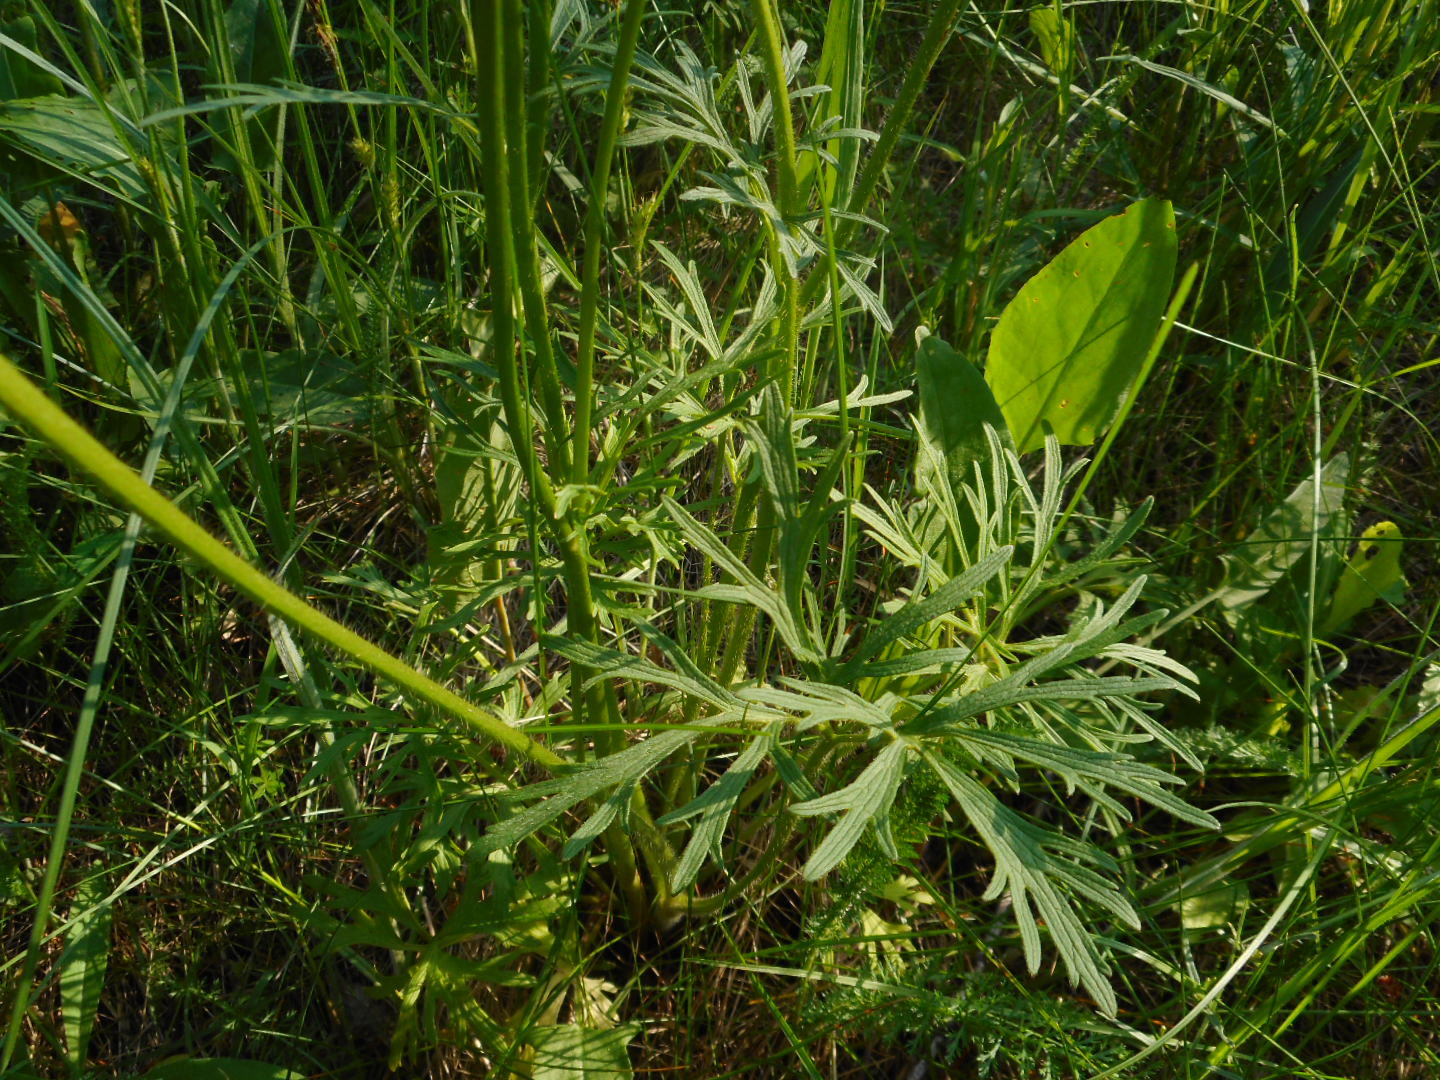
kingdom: Plantae
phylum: Tracheophyta
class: Magnoliopsida
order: Ranunculales
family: Ranunculaceae
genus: Ranunculus
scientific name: Ranunculus polyanthemos
